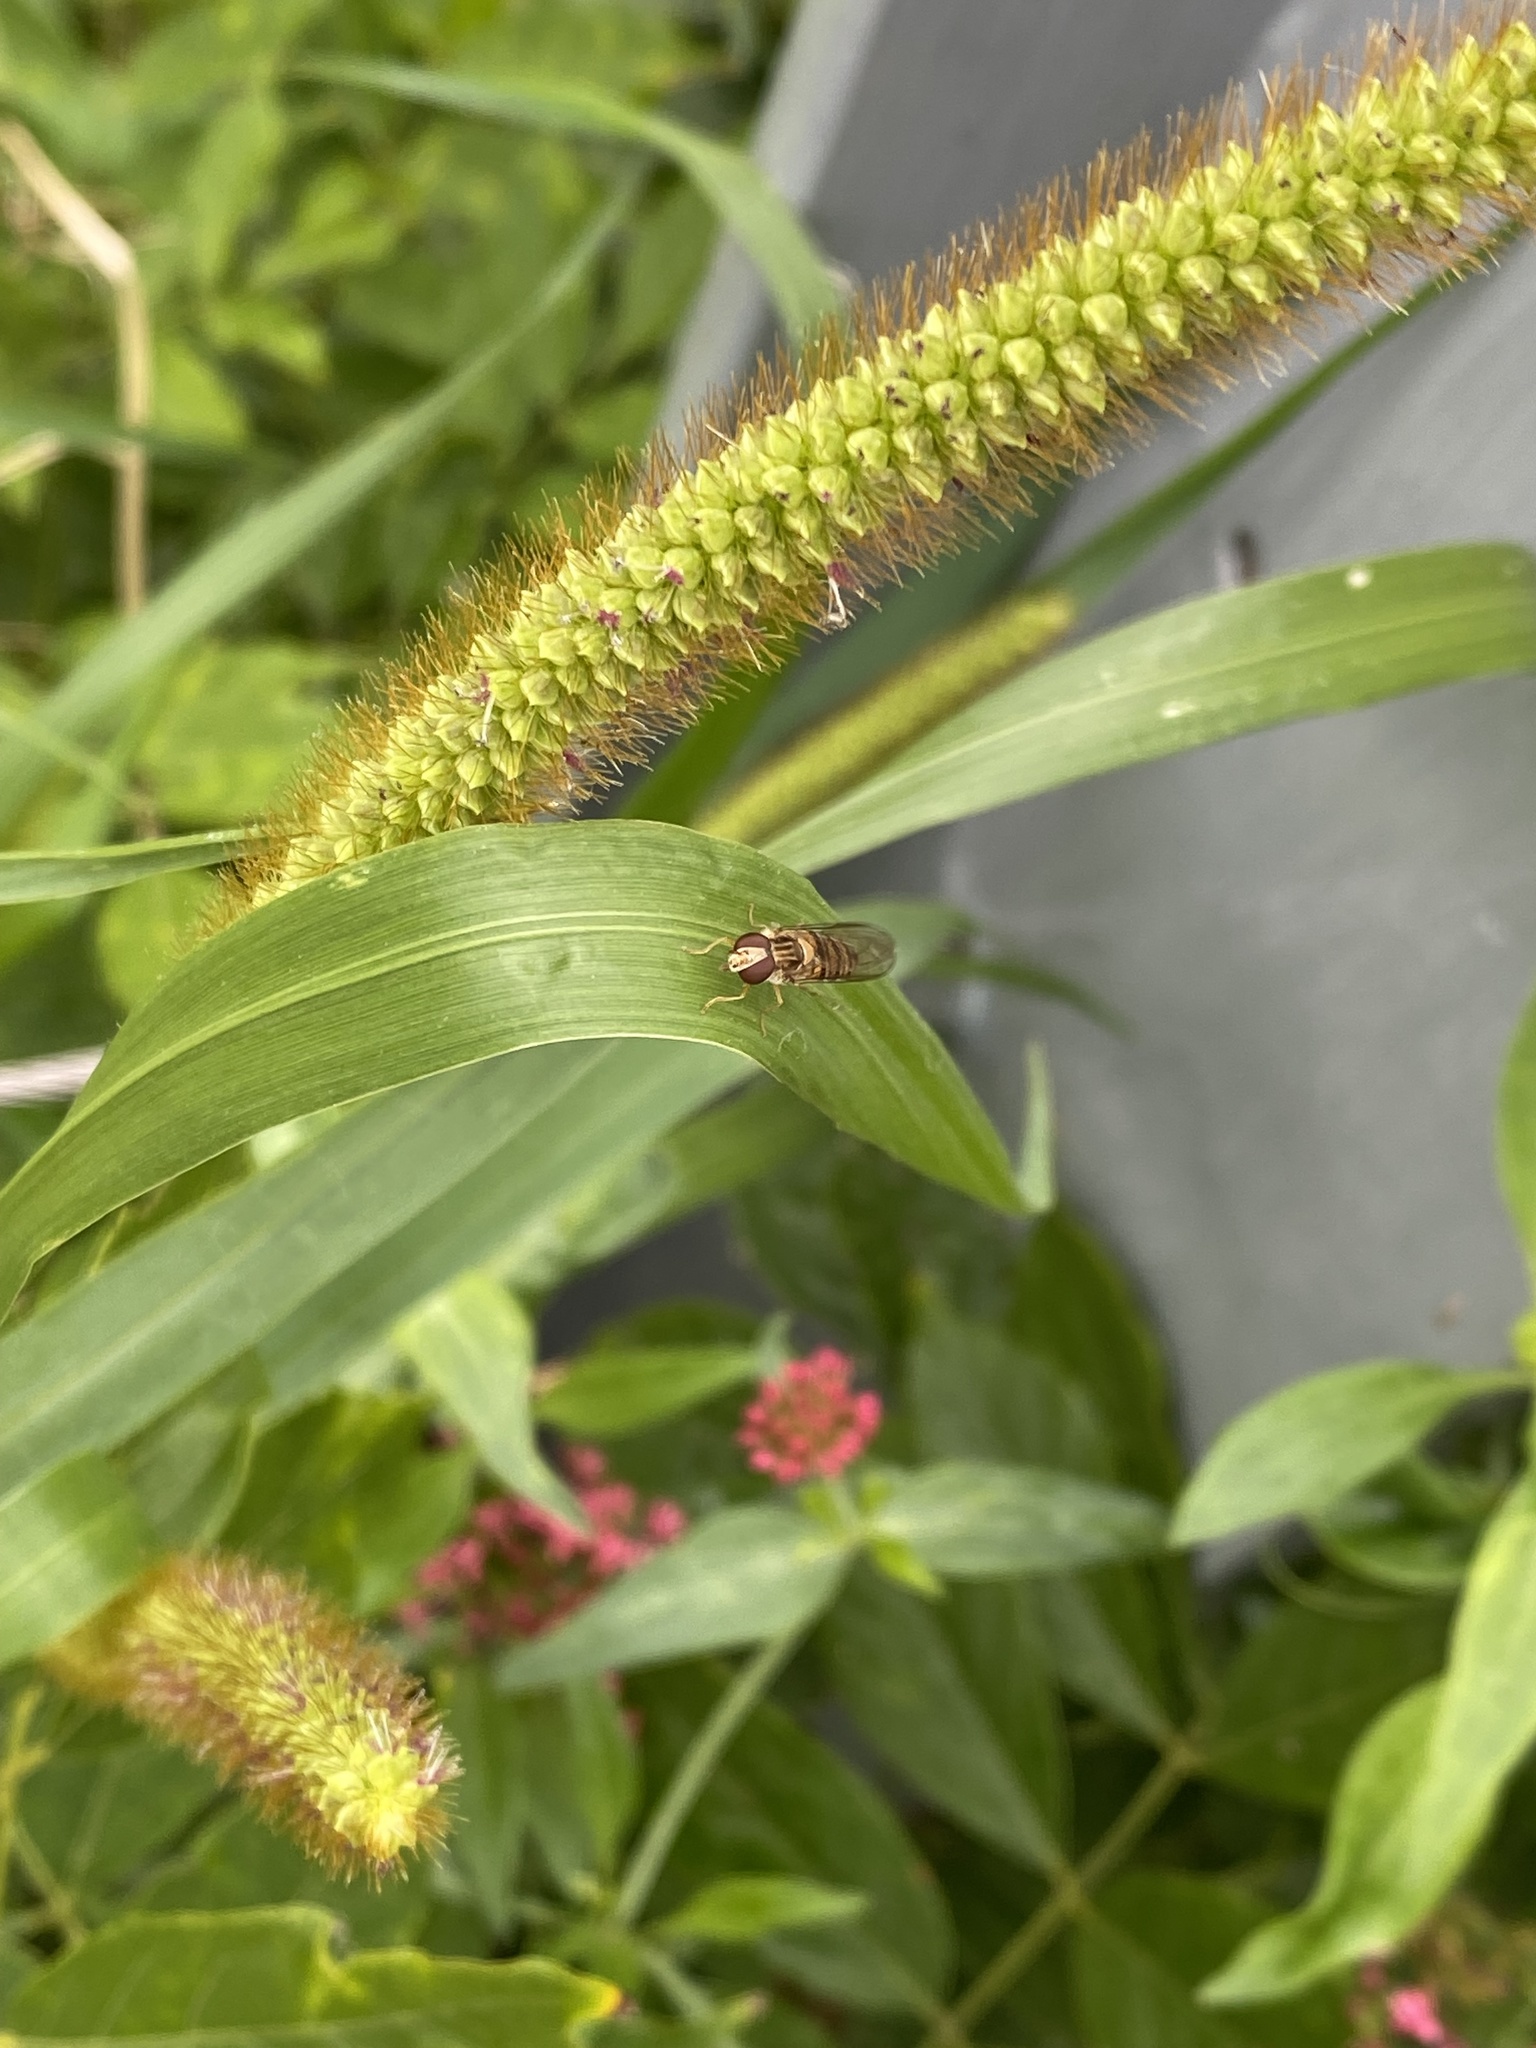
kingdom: Animalia
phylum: Arthropoda
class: Insecta
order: Diptera
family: Syrphidae
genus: Episyrphus
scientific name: Episyrphus balteatus
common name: Marmalade hoverfly
